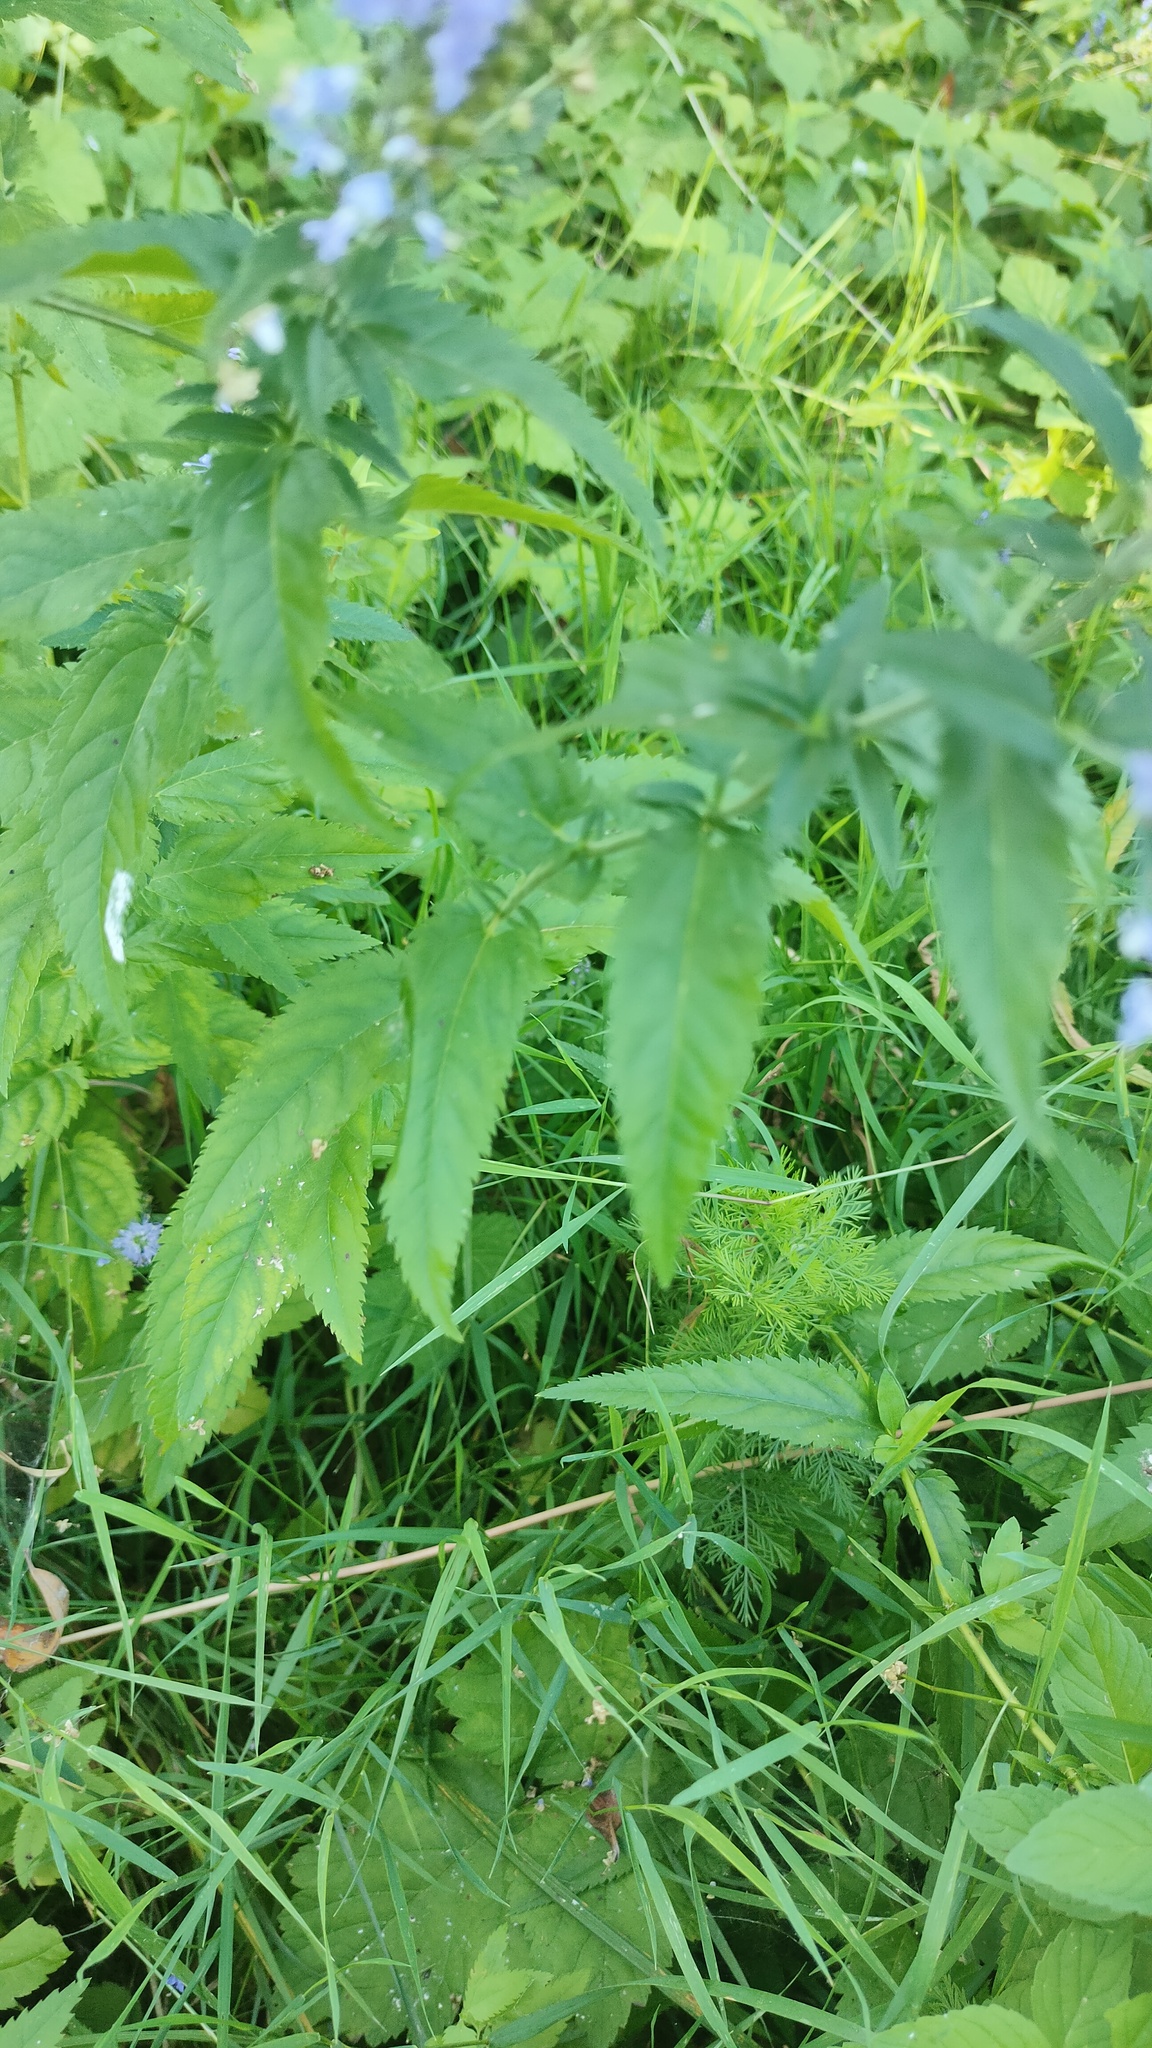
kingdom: Plantae
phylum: Tracheophyta
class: Magnoliopsida
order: Lamiales
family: Plantaginaceae
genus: Veronica
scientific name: Veronica longifolia
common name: Garden speedwell
